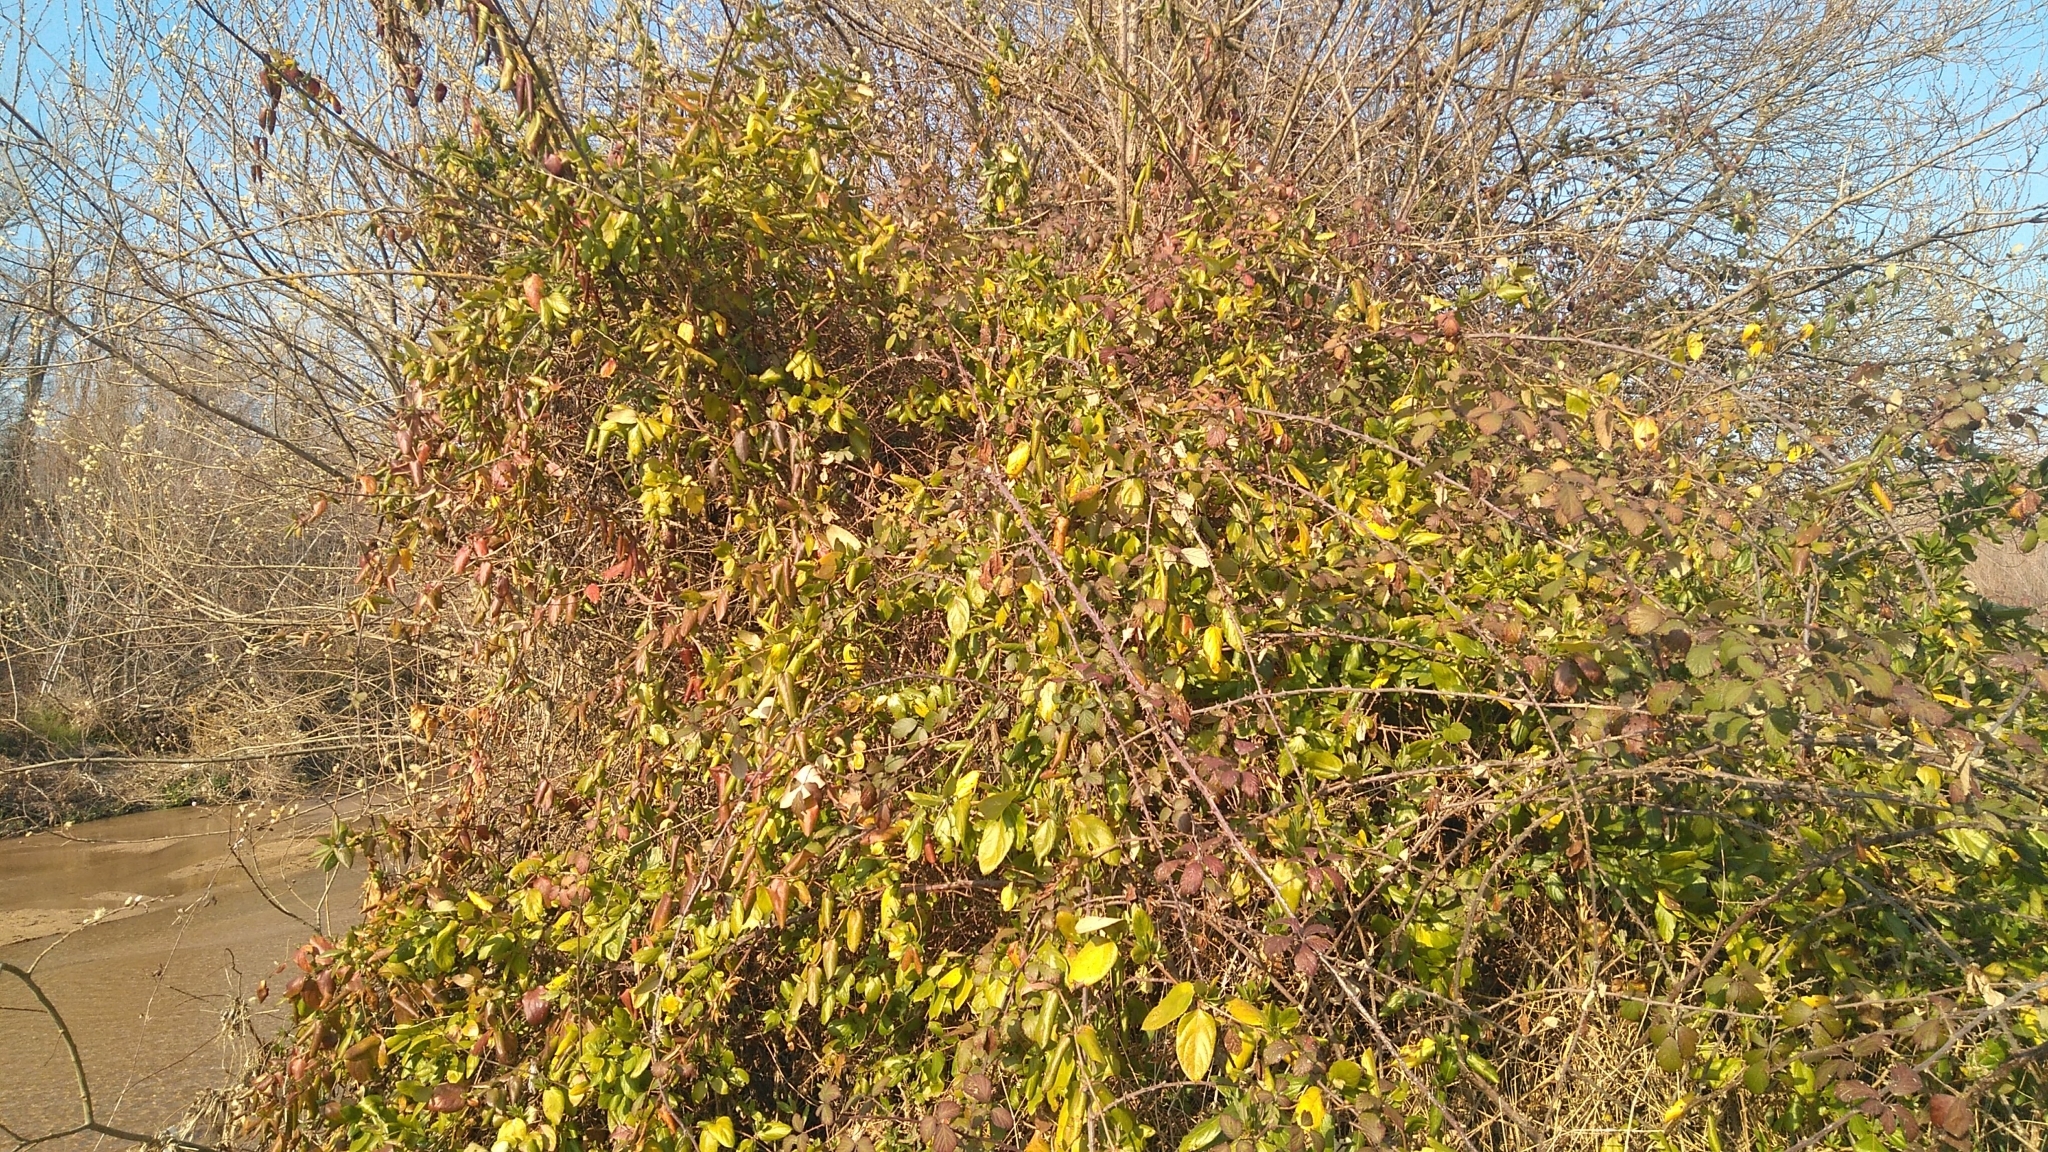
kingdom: Plantae
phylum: Tracheophyta
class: Magnoliopsida
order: Dipsacales
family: Caprifoliaceae
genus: Lonicera
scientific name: Lonicera japonica
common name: Japanese honeysuckle
